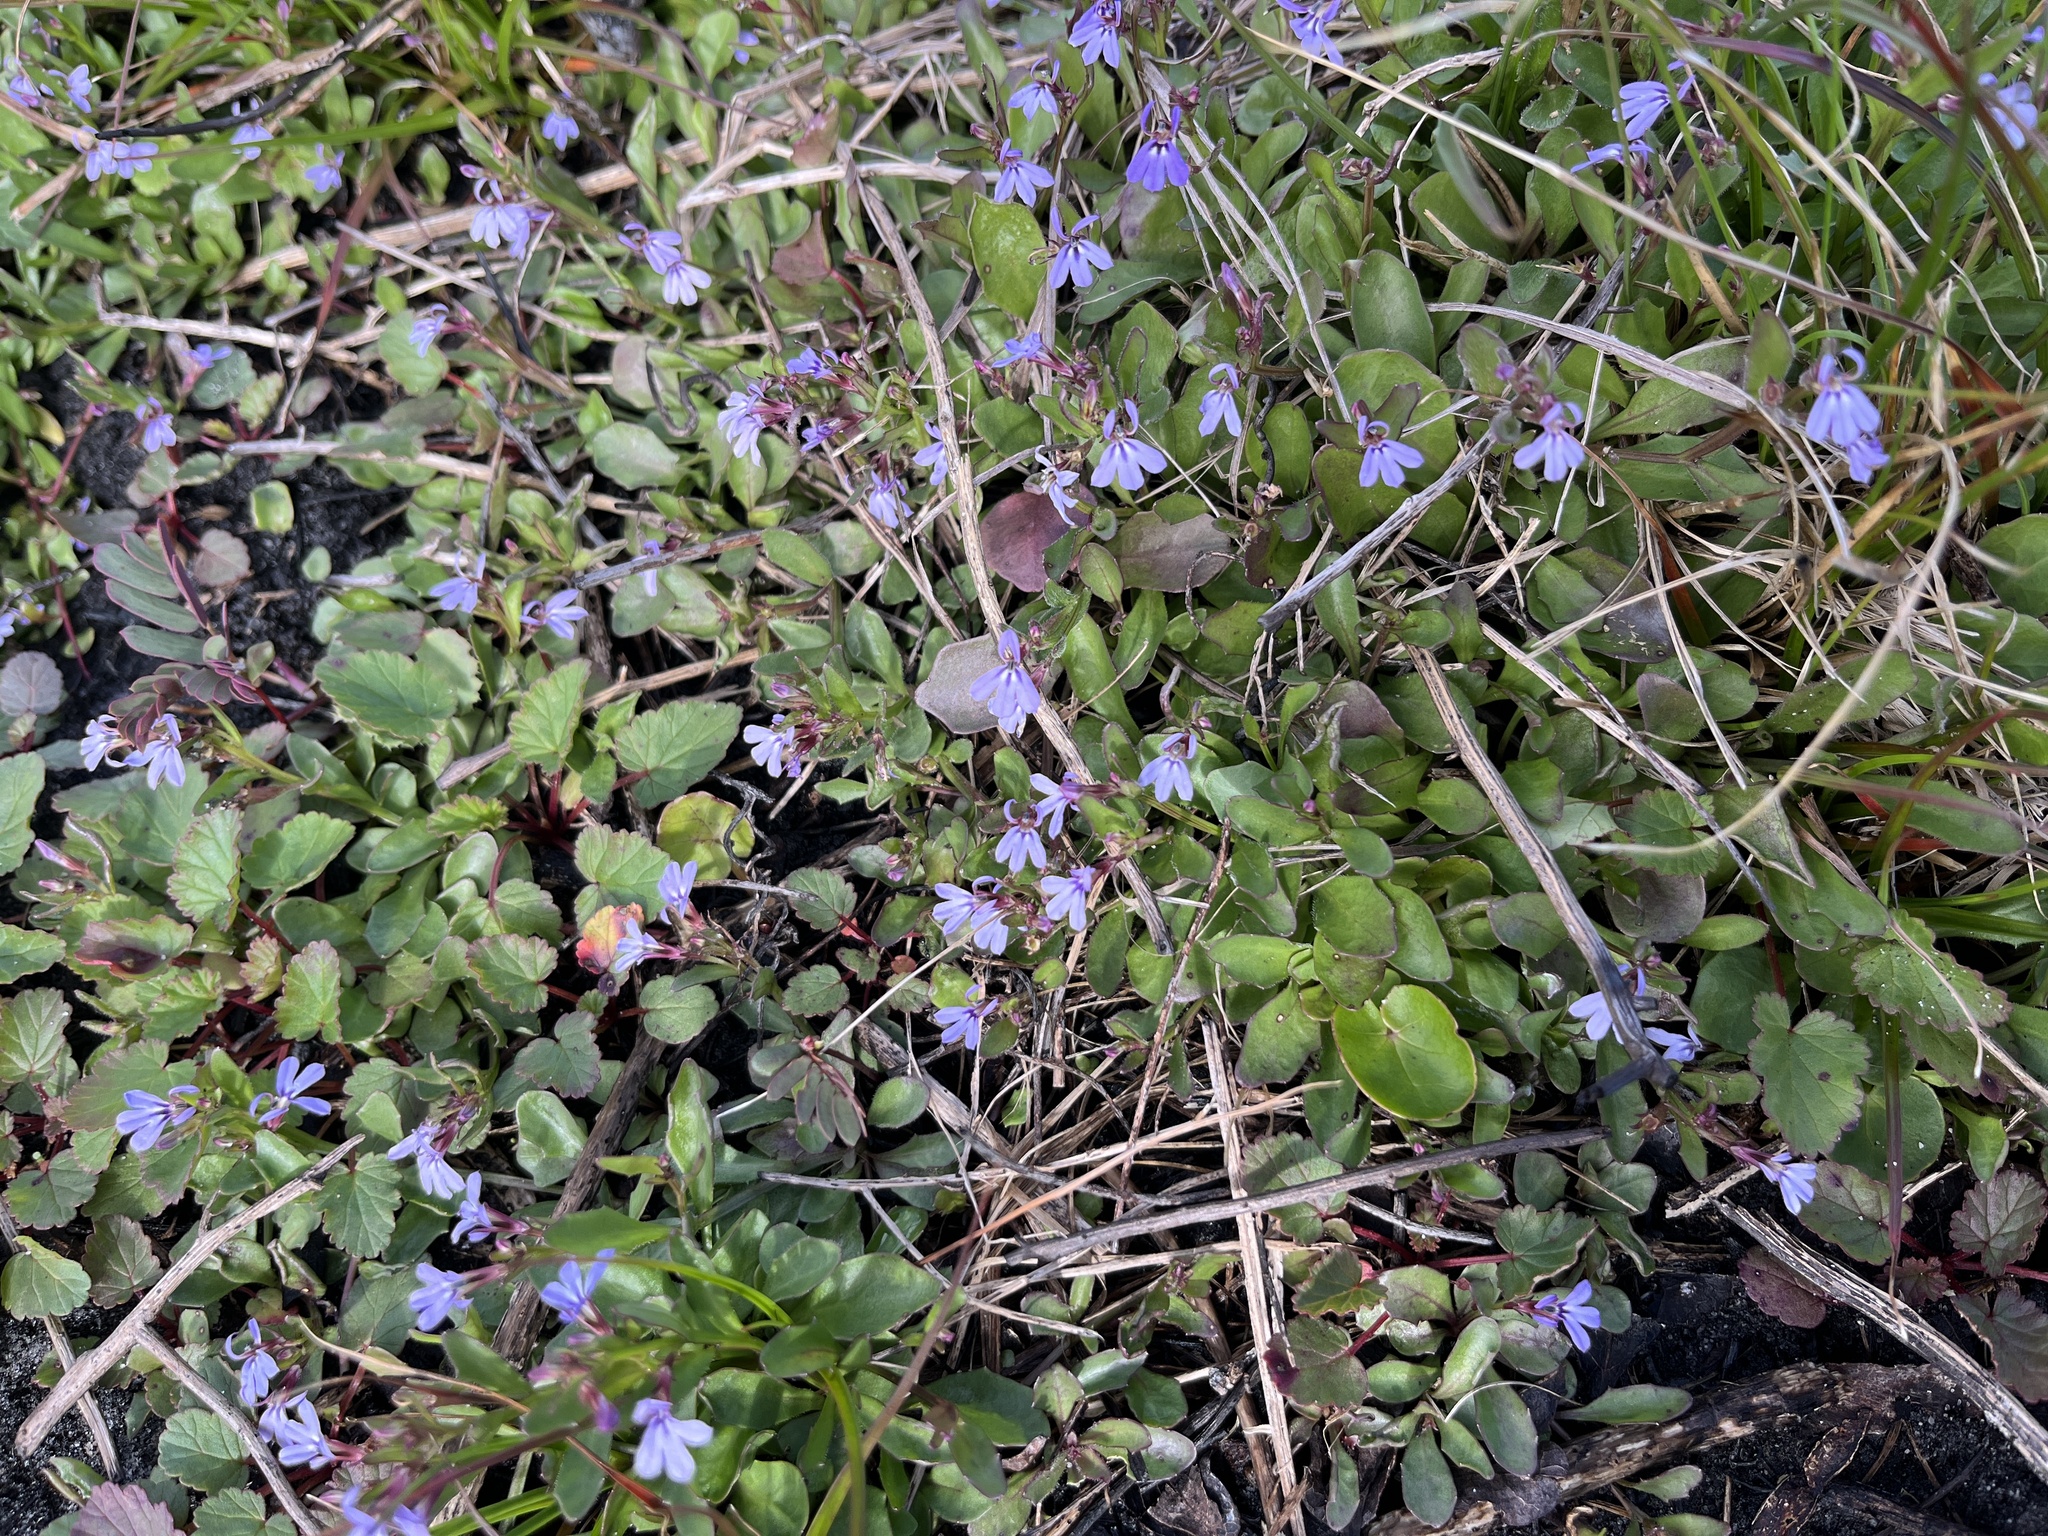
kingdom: Plantae
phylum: Tracheophyta
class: Magnoliopsida
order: Asterales
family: Campanulaceae
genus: Lobelia
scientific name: Lobelia anceps
